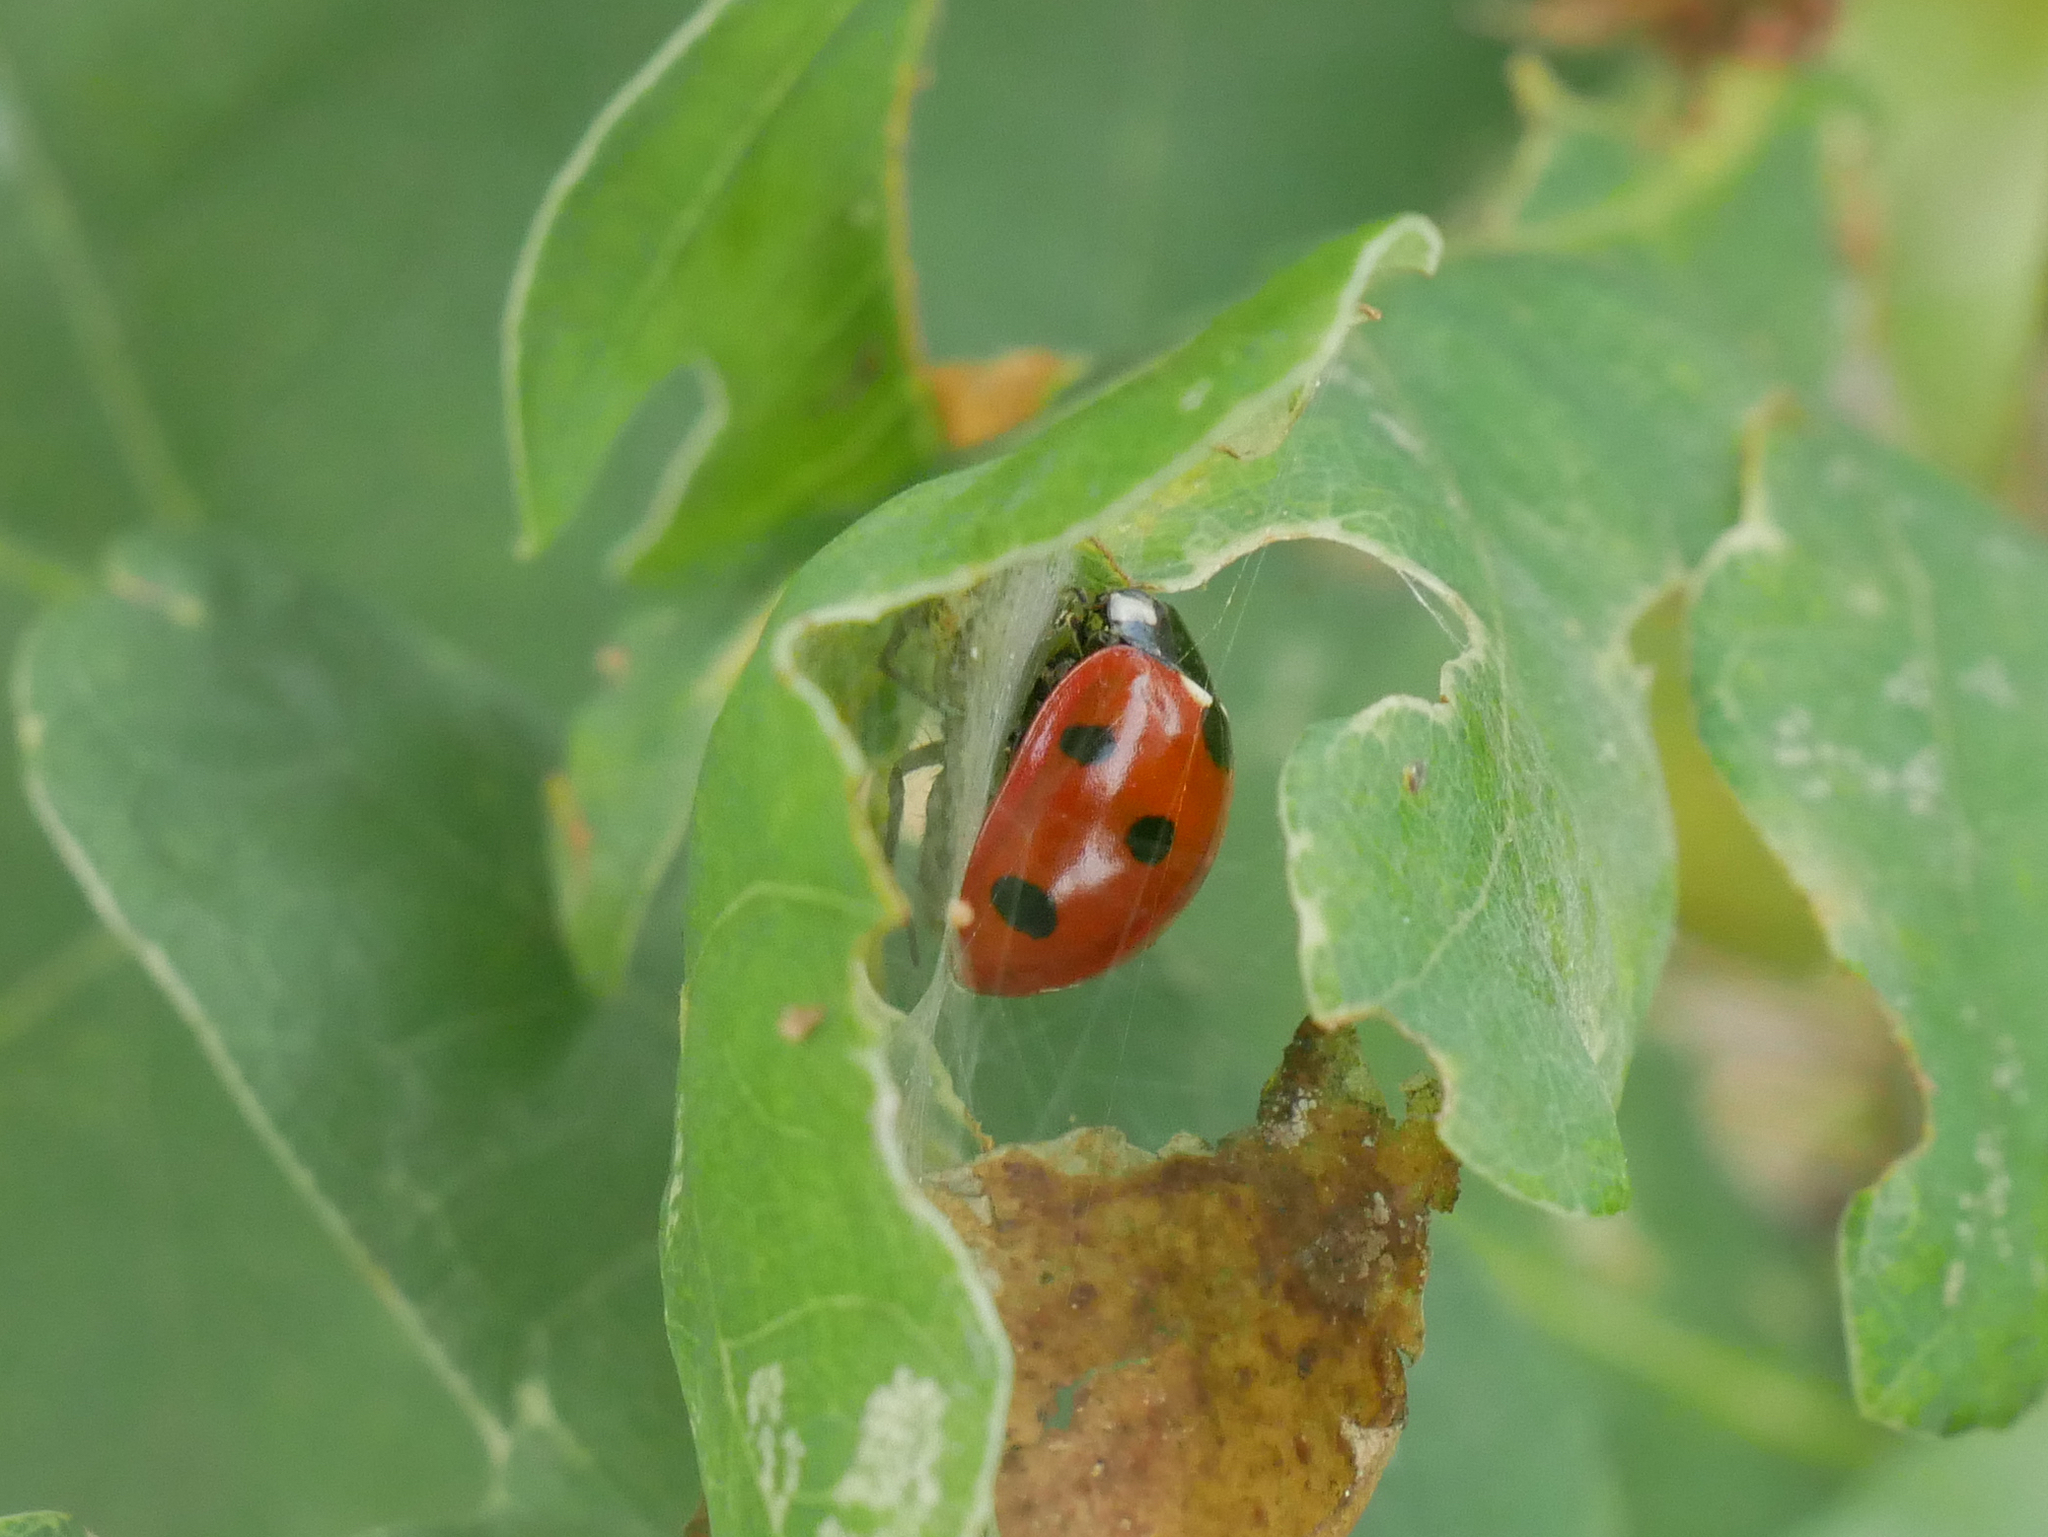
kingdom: Animalia
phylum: Arthropoda
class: Insecta
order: Coleoptera
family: Coccinellidae
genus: Coccinella
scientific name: Coccinella septempunctata
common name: Sevenspotted lady beetle
